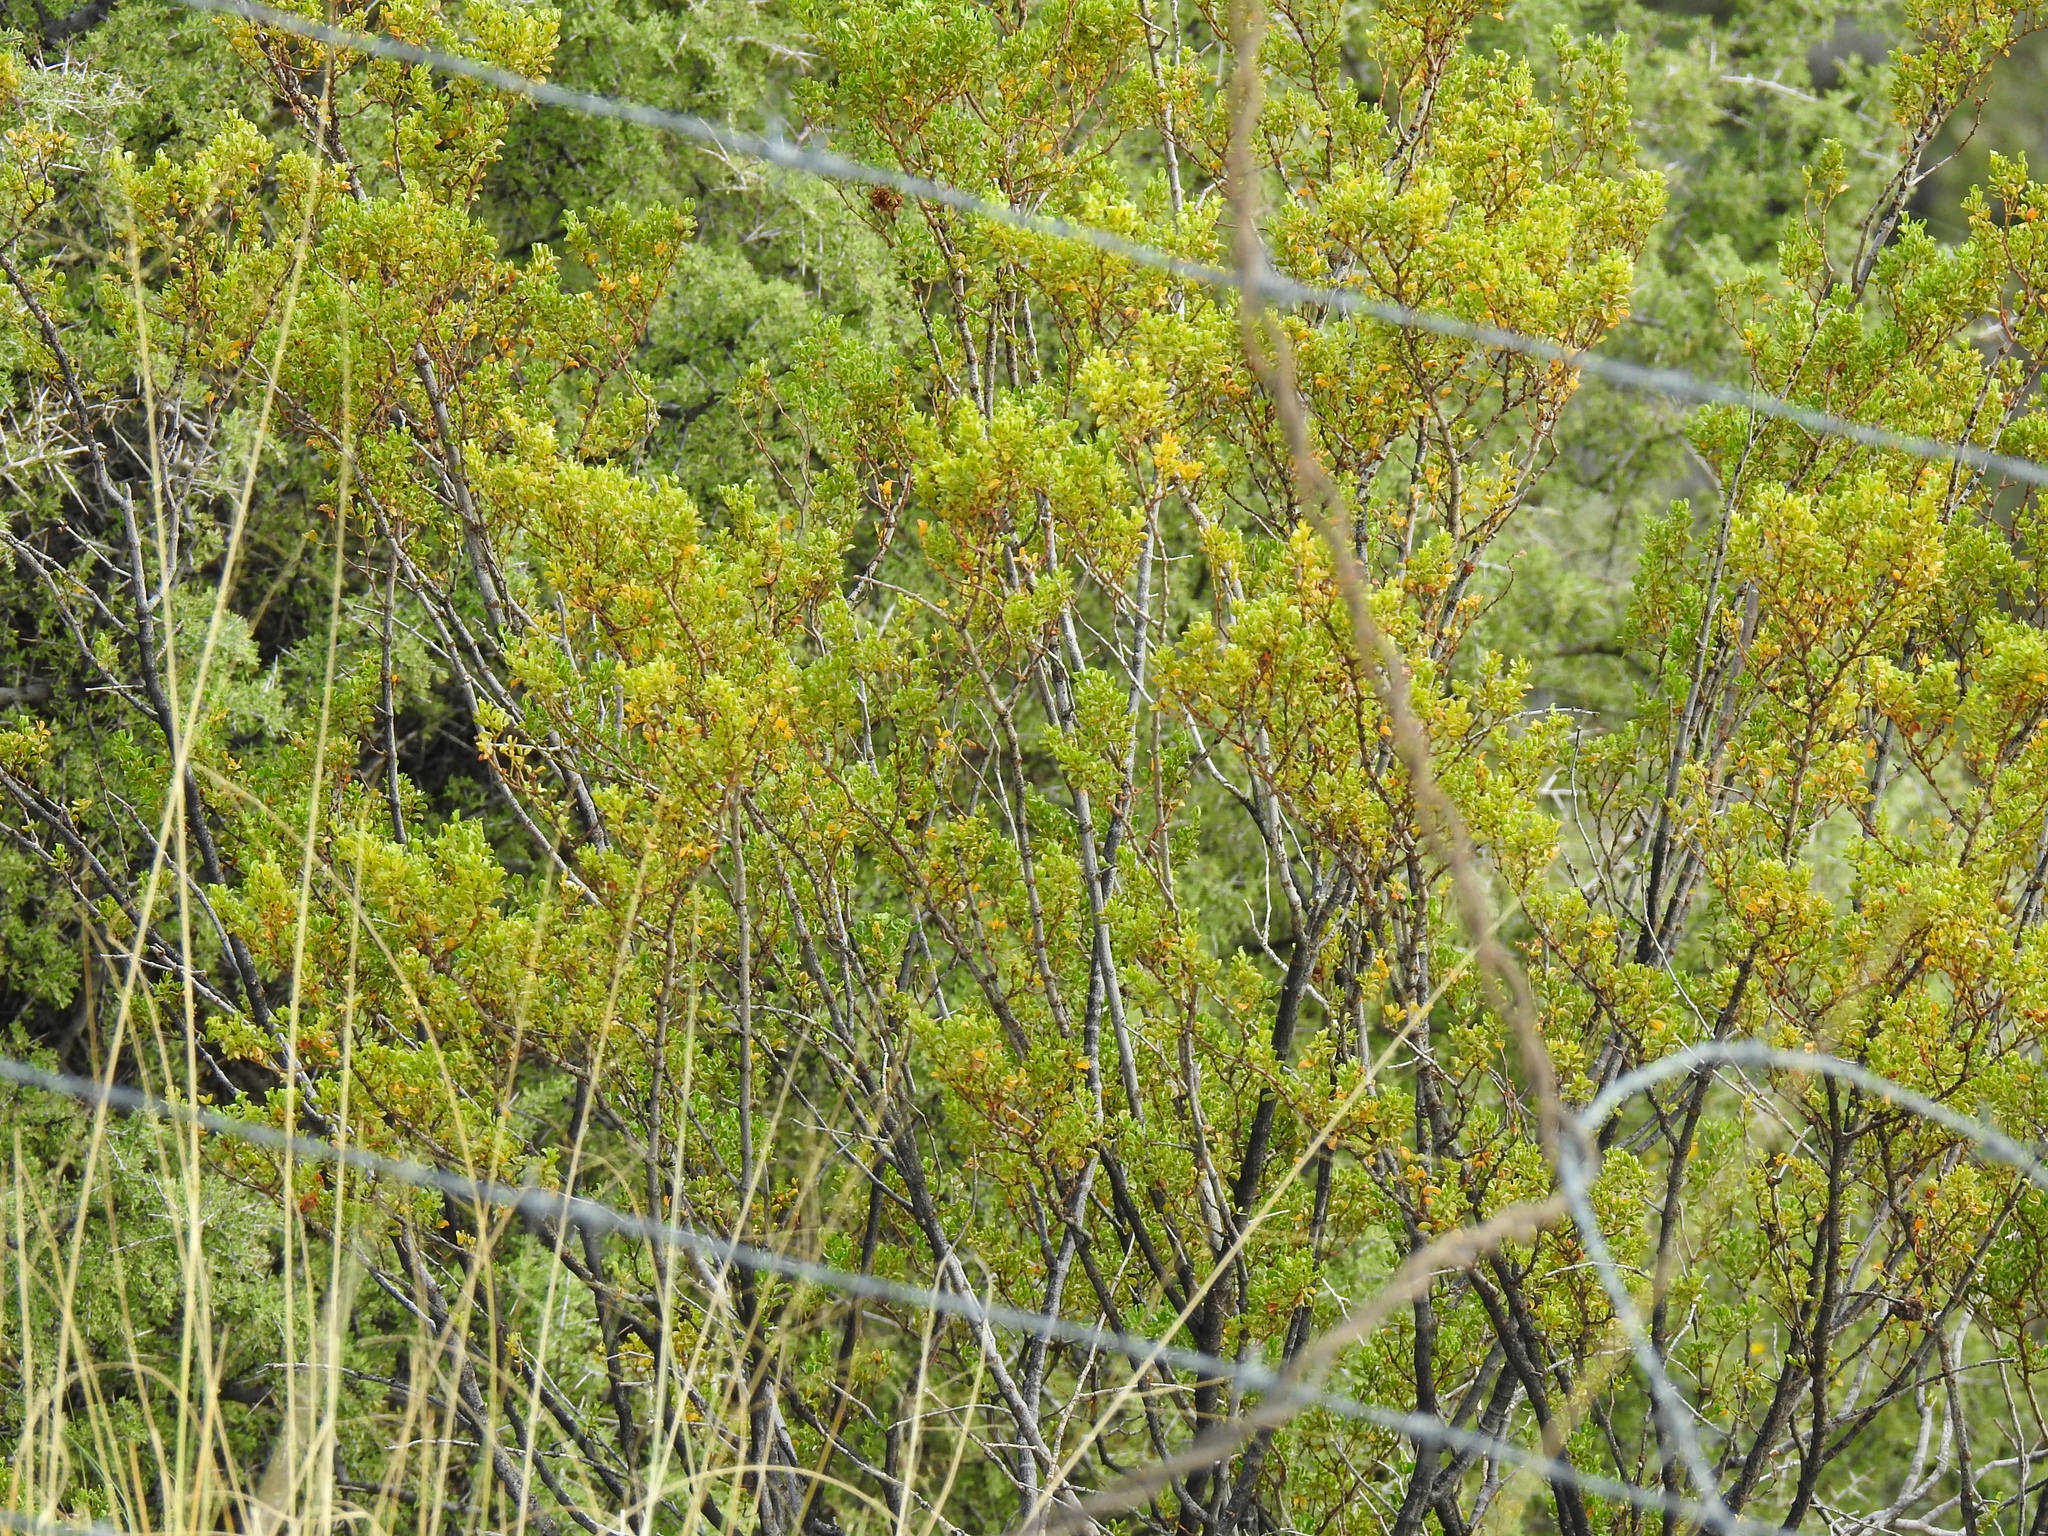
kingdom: Plantae
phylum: Tracheophyta
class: Magnoliopsida
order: Zygophyllales
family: Zygophyllaceae
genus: Larrea
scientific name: Larrea tridentata
